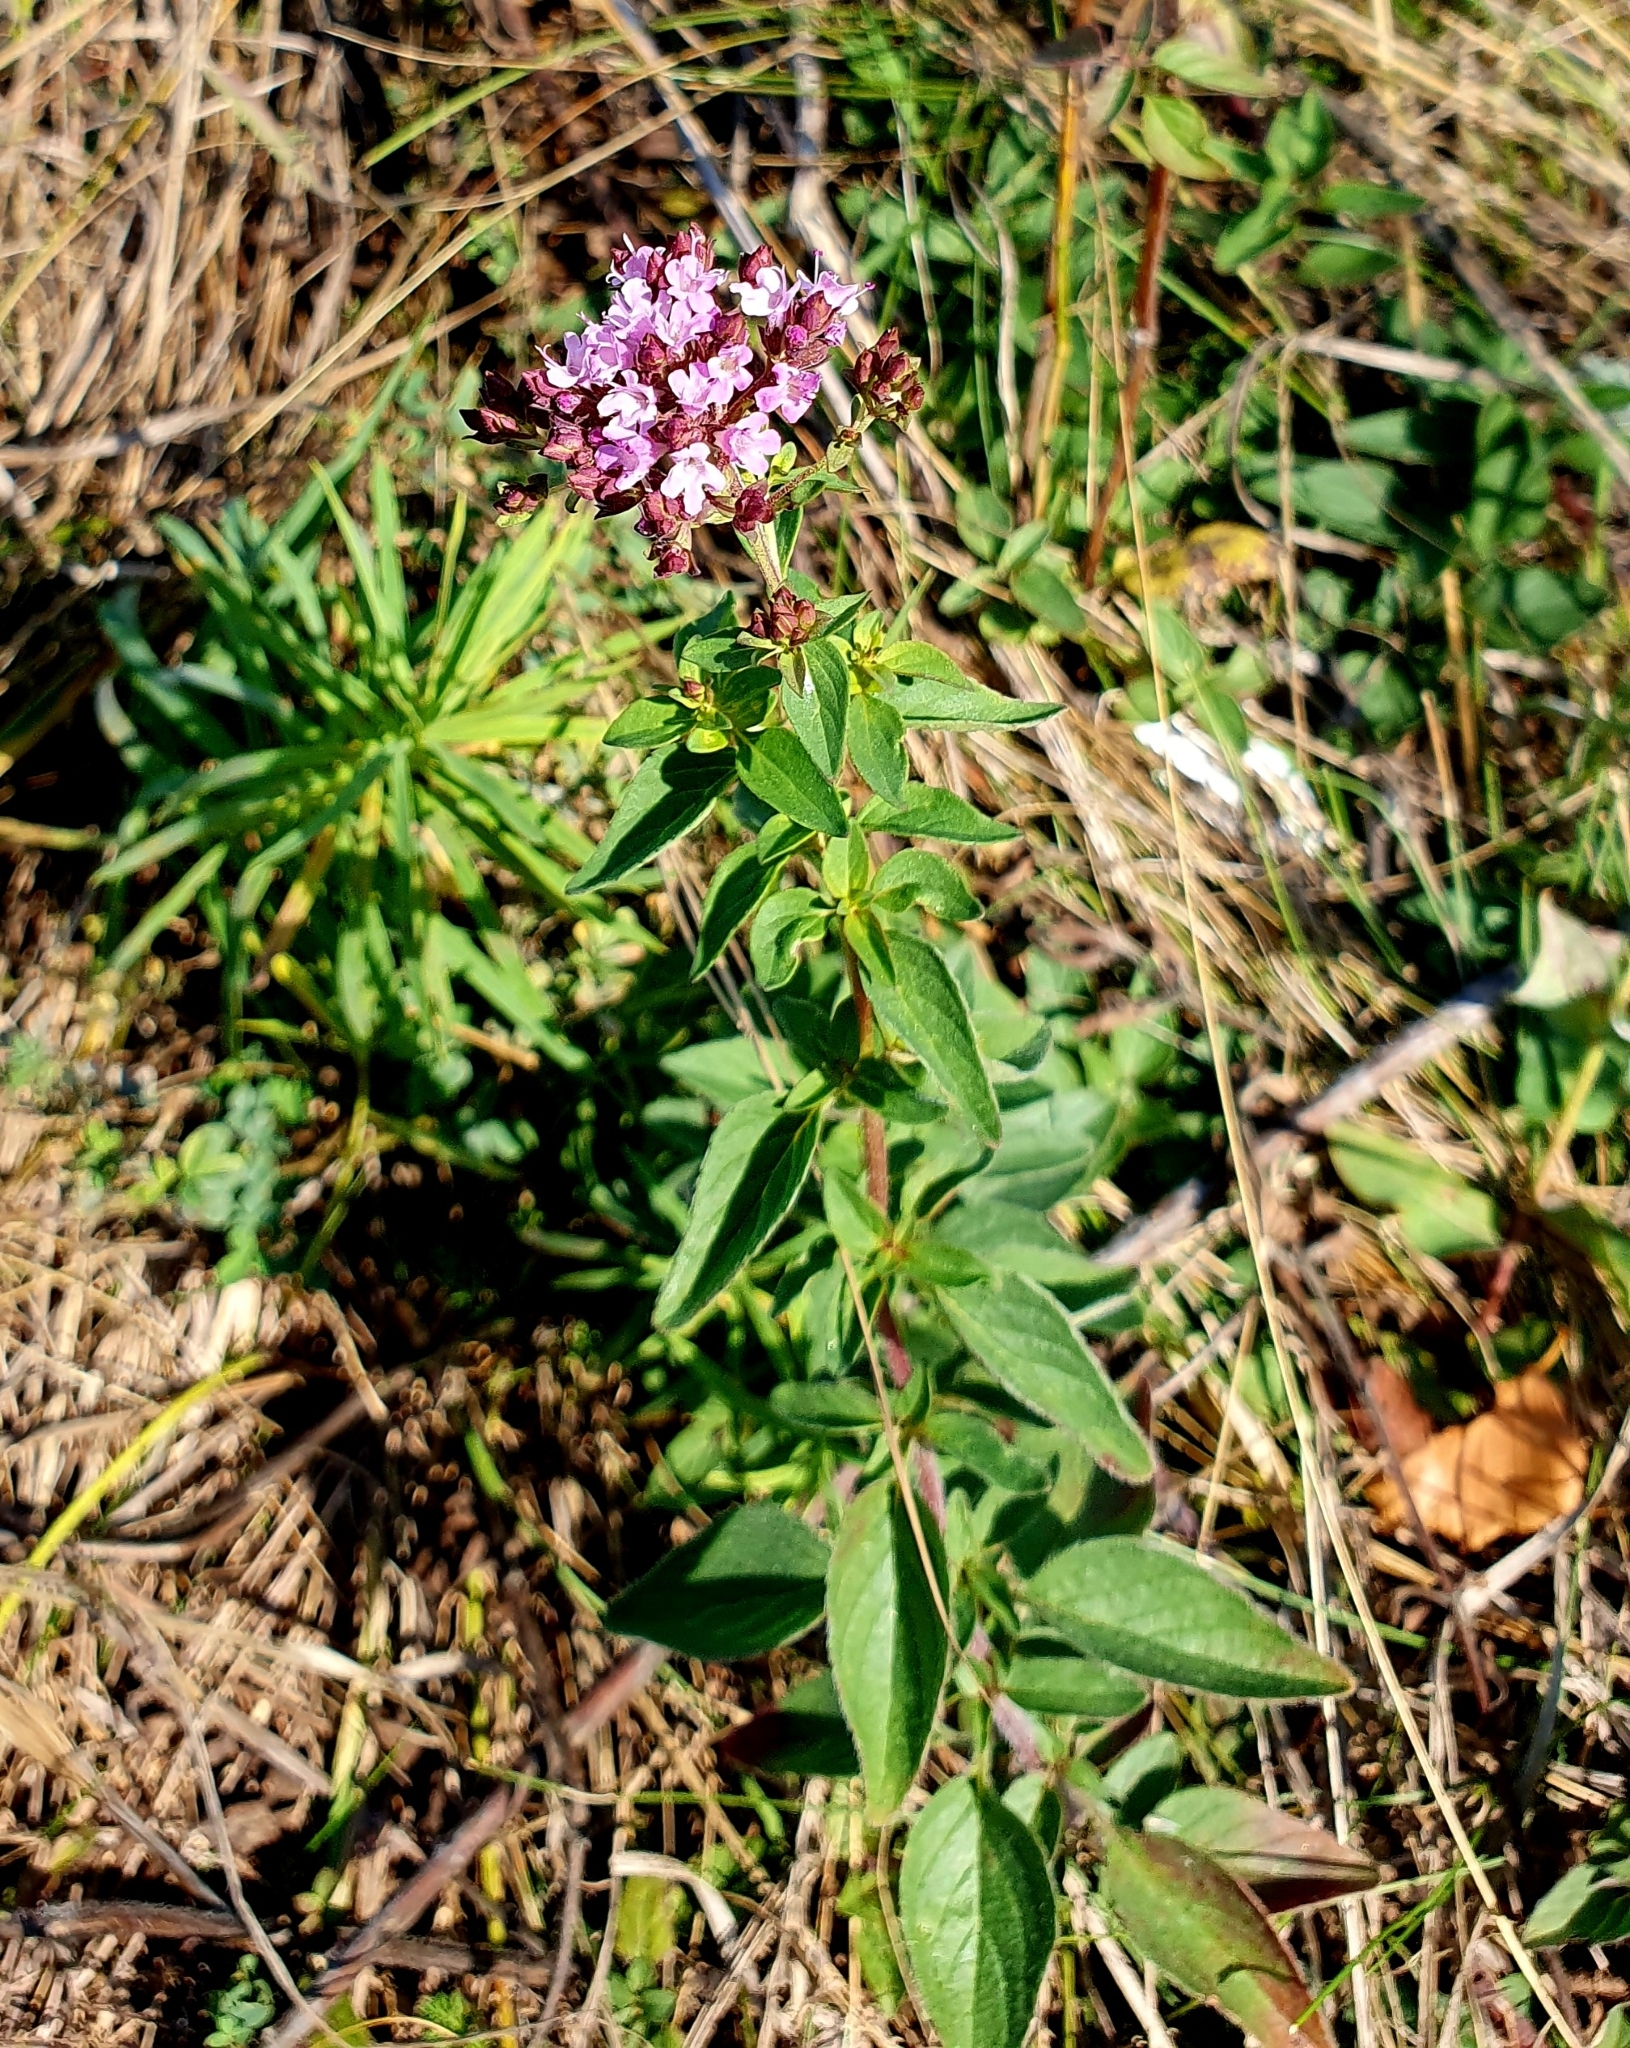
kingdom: Plantae
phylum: Tracheophyta
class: Magnoliopsida
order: Lamiales
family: Lamiaceae
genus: Origanum
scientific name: Origanum vulgare
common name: Wild marjoram
